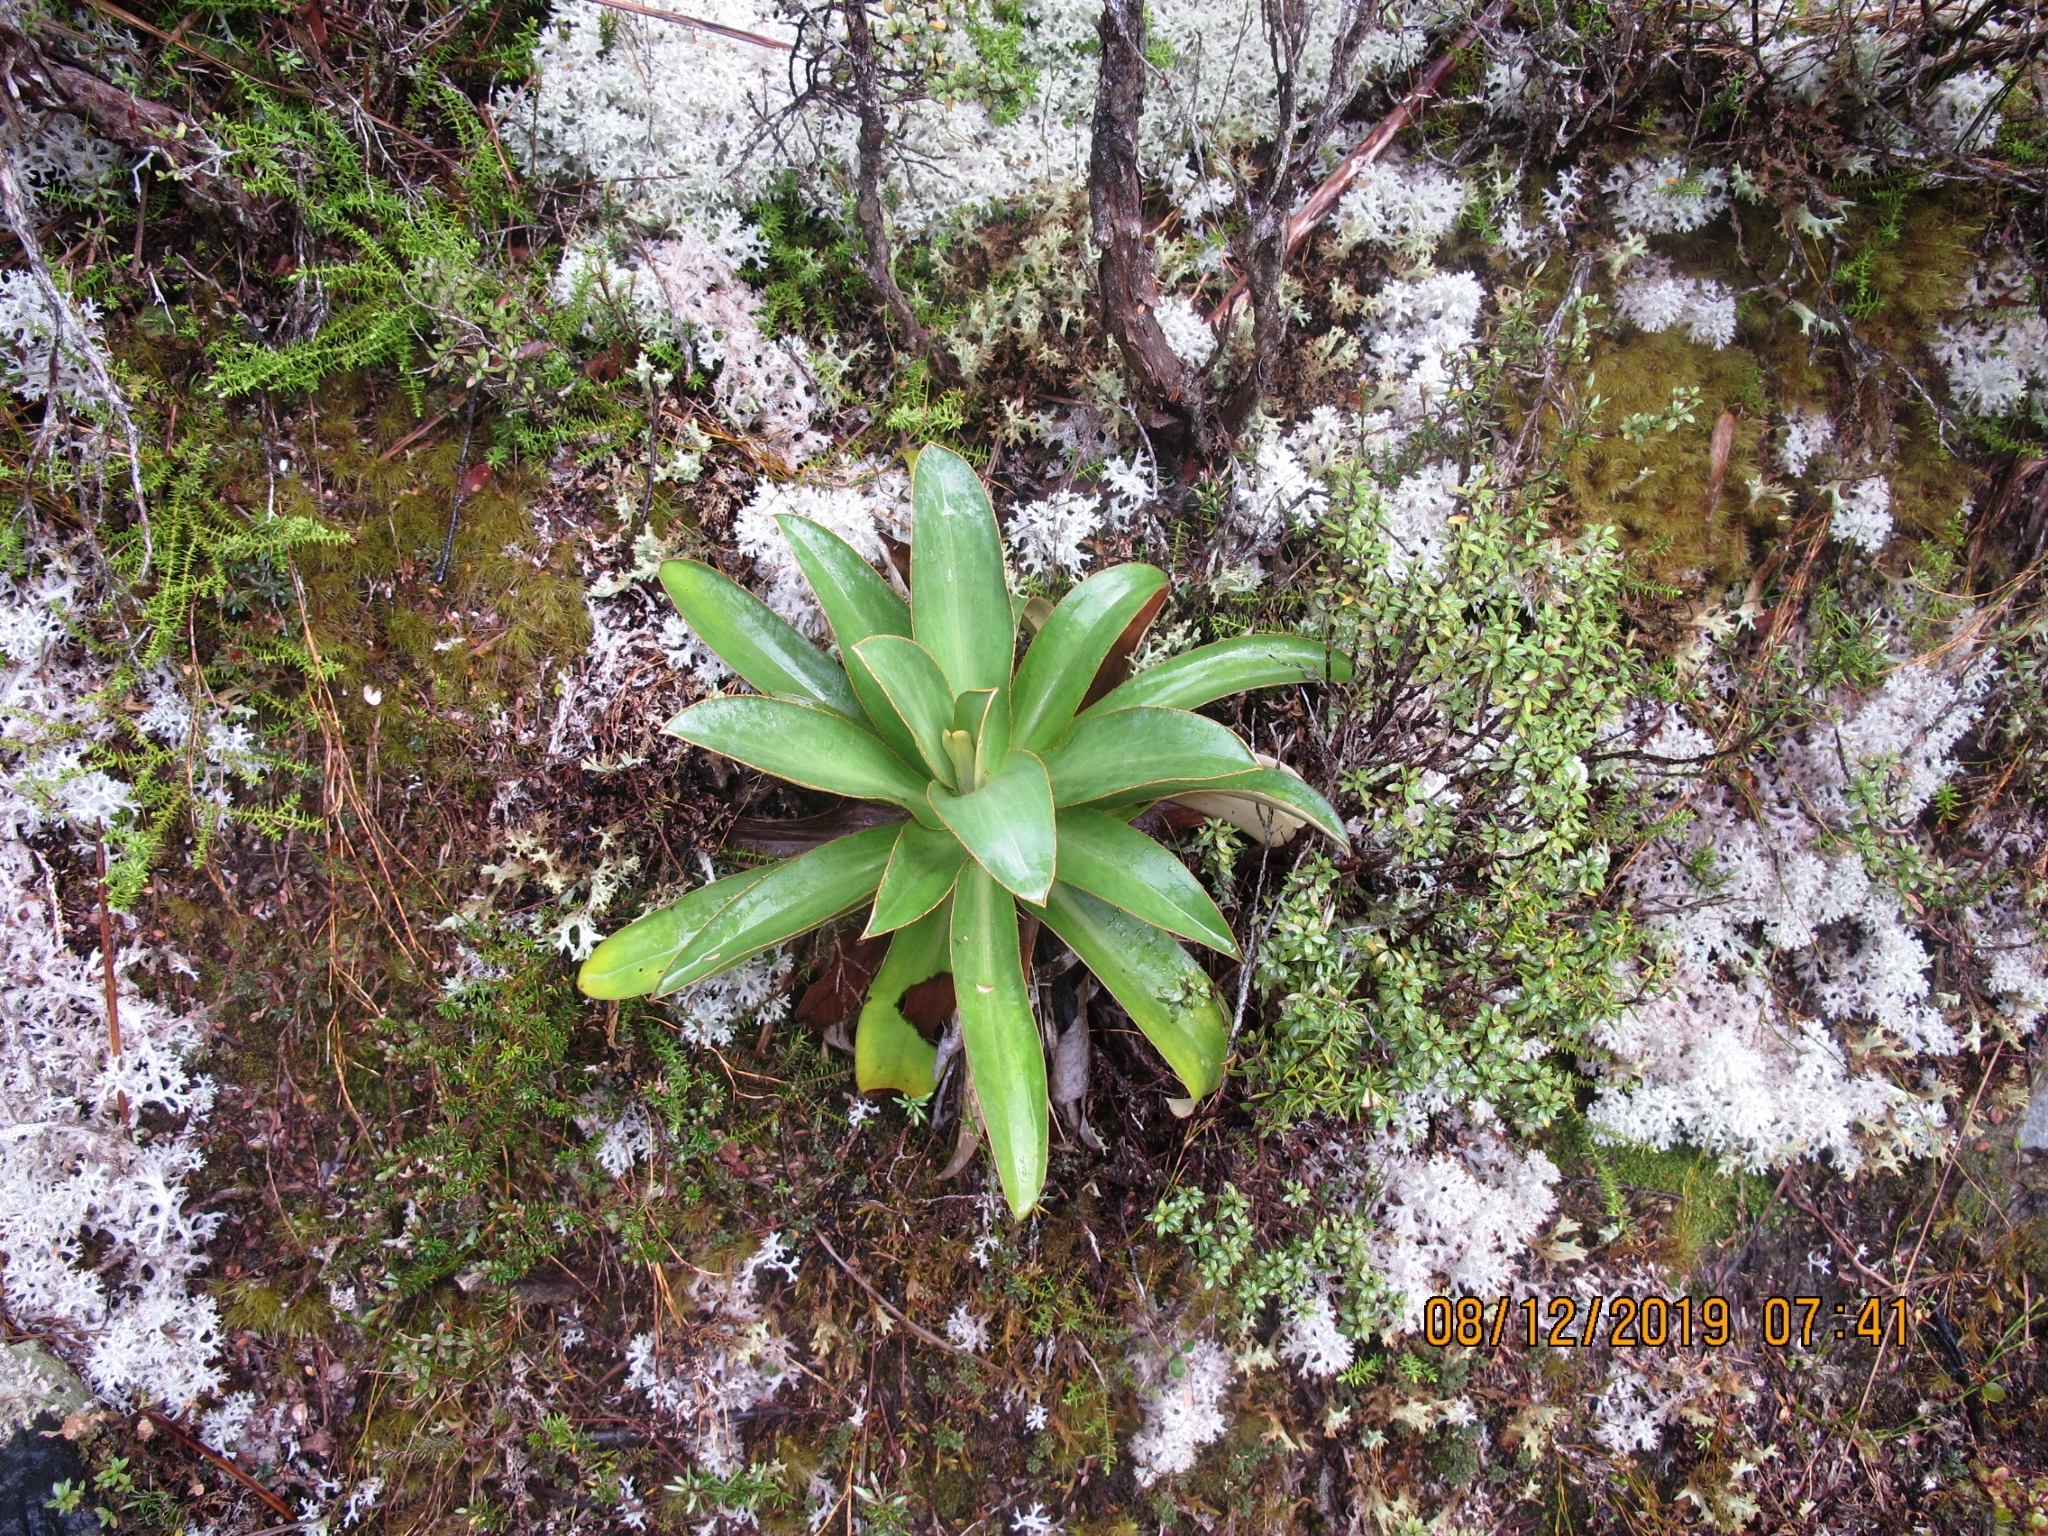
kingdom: Plantae
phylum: Tracheophyta
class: Magnoliopsida
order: Asterales
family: Asteraceae
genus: Celmisia
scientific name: Celmisia dallii
